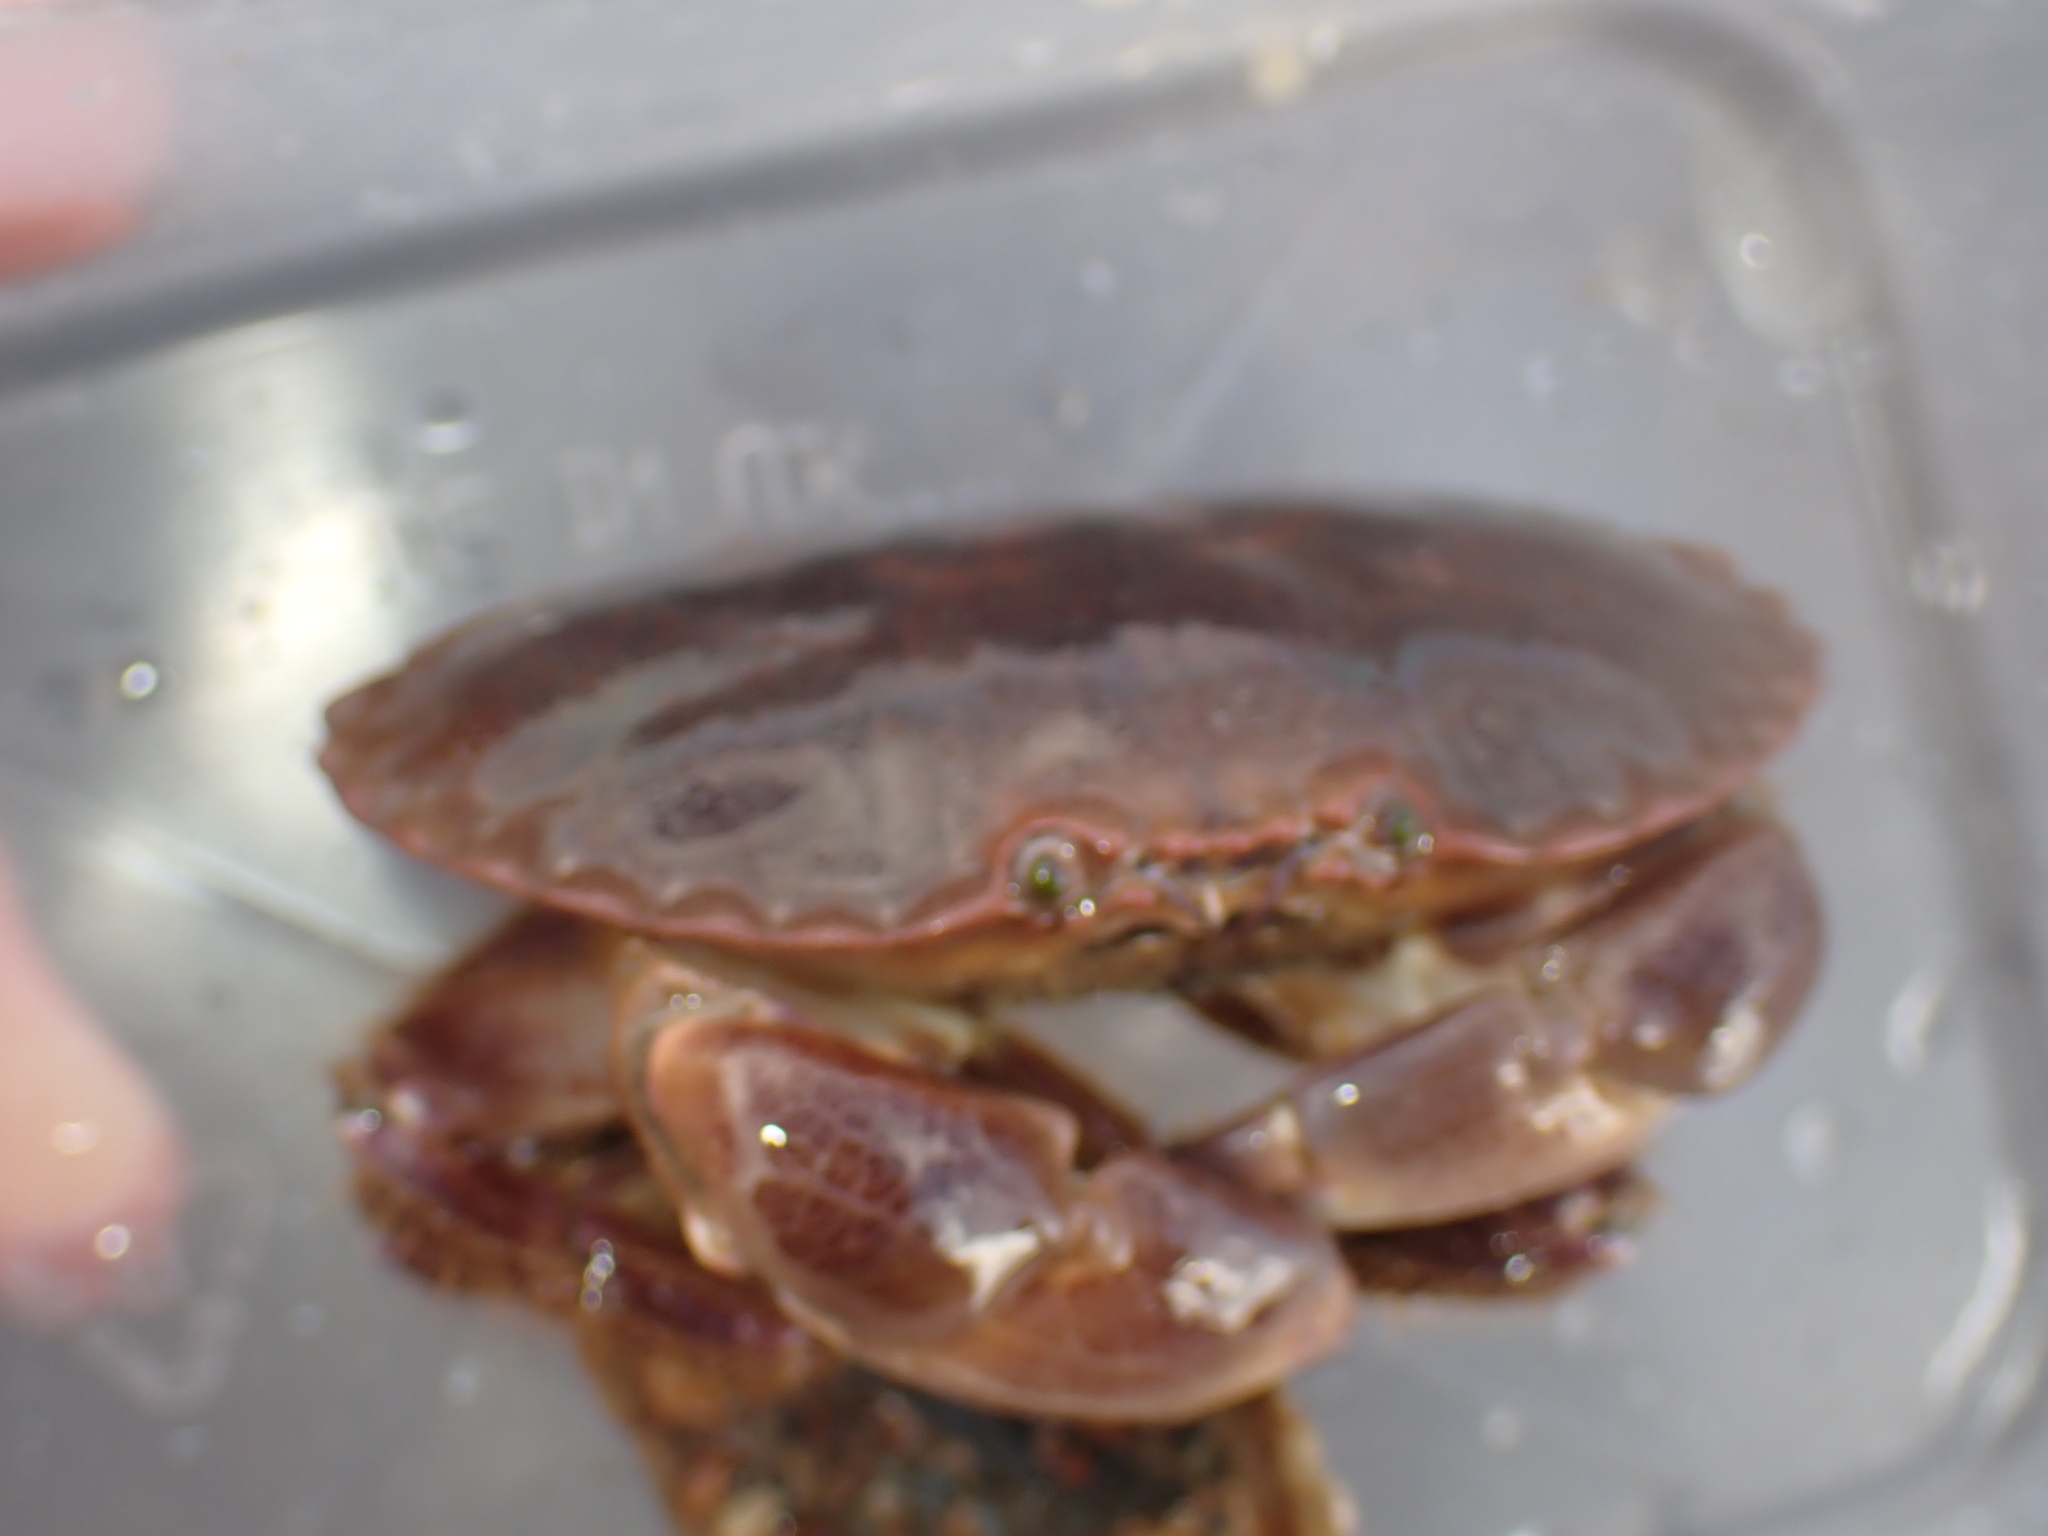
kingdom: Animalia
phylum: Arthropoda
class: Malacostraca
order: Decapoda
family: Cancridae
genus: Cancer
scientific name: Cancer pagurus
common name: Edible crab
